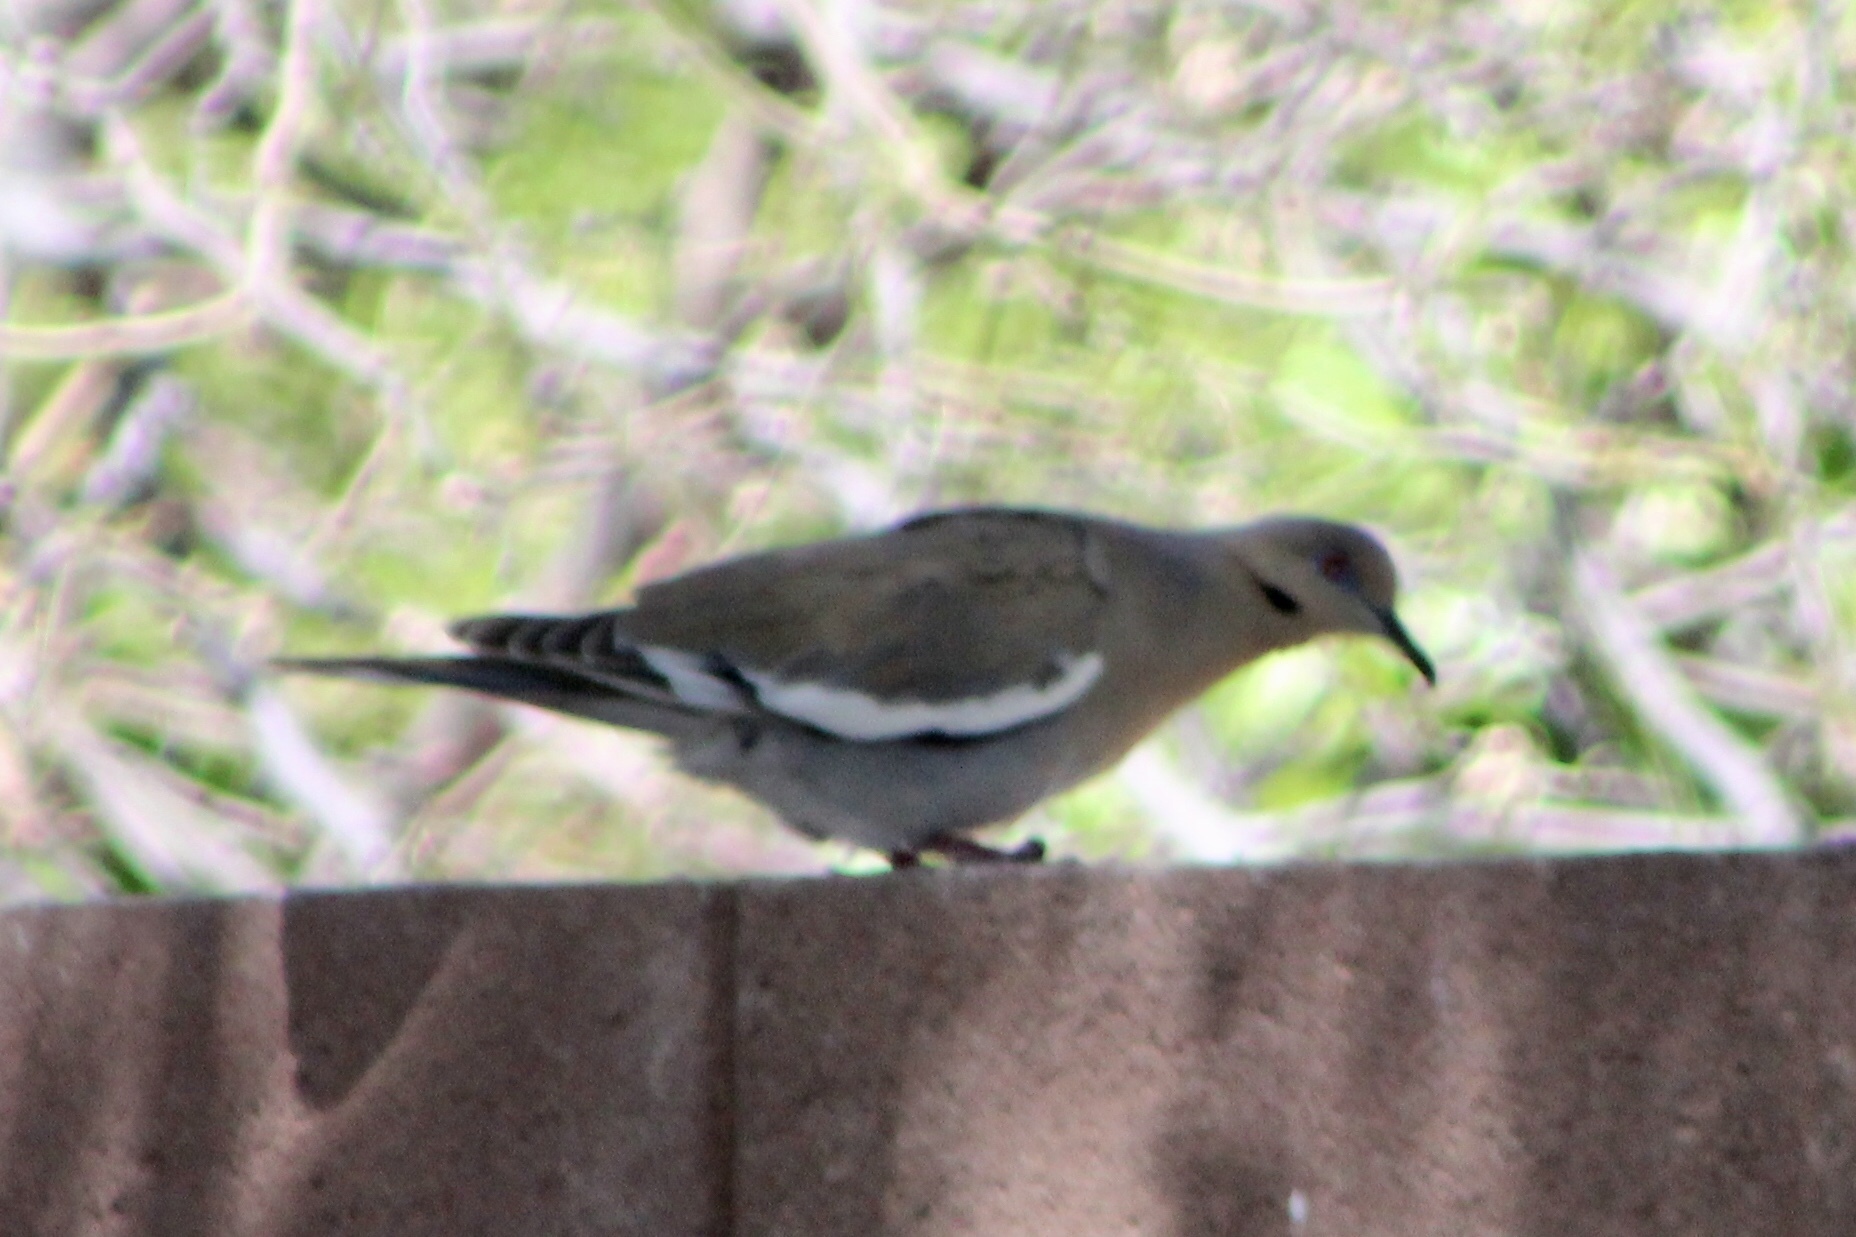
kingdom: Animalia
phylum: Chordata
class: Aves
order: Columbiformes
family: Columbidae
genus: Zenaida
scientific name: Zenaida asiatica
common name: White-winged dove
